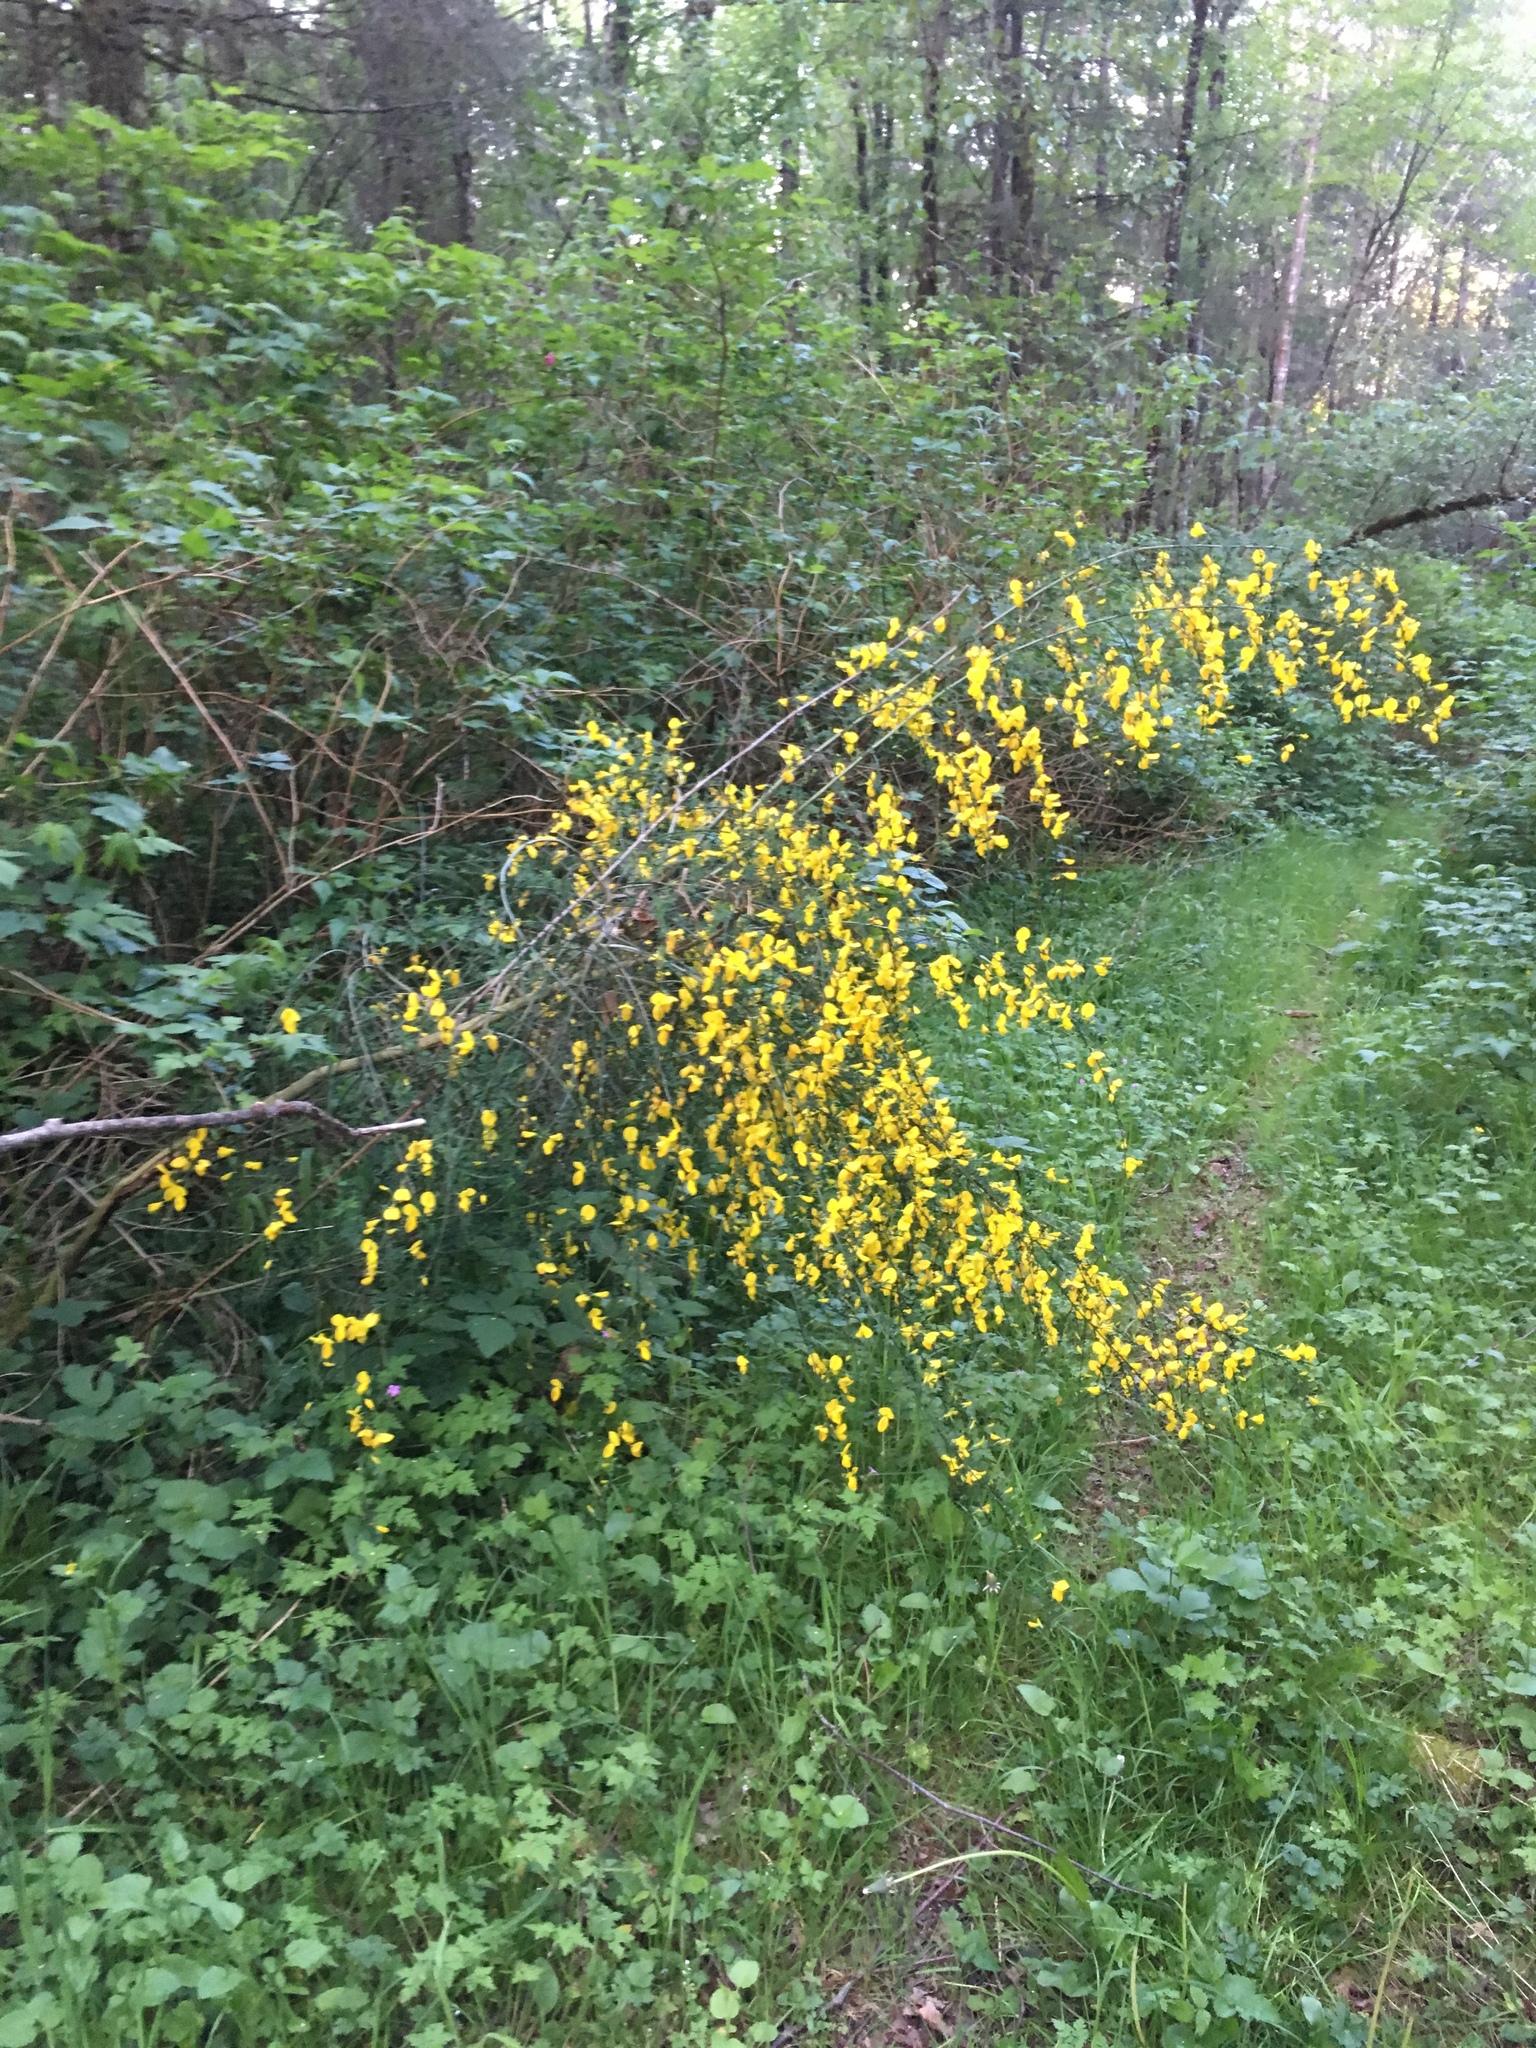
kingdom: Plantae
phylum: Tracheophyta
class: Magnoliopsida
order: Fabales
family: Fabaceae
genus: Cytisus
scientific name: Cytisus scoparius
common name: Scotch broom
